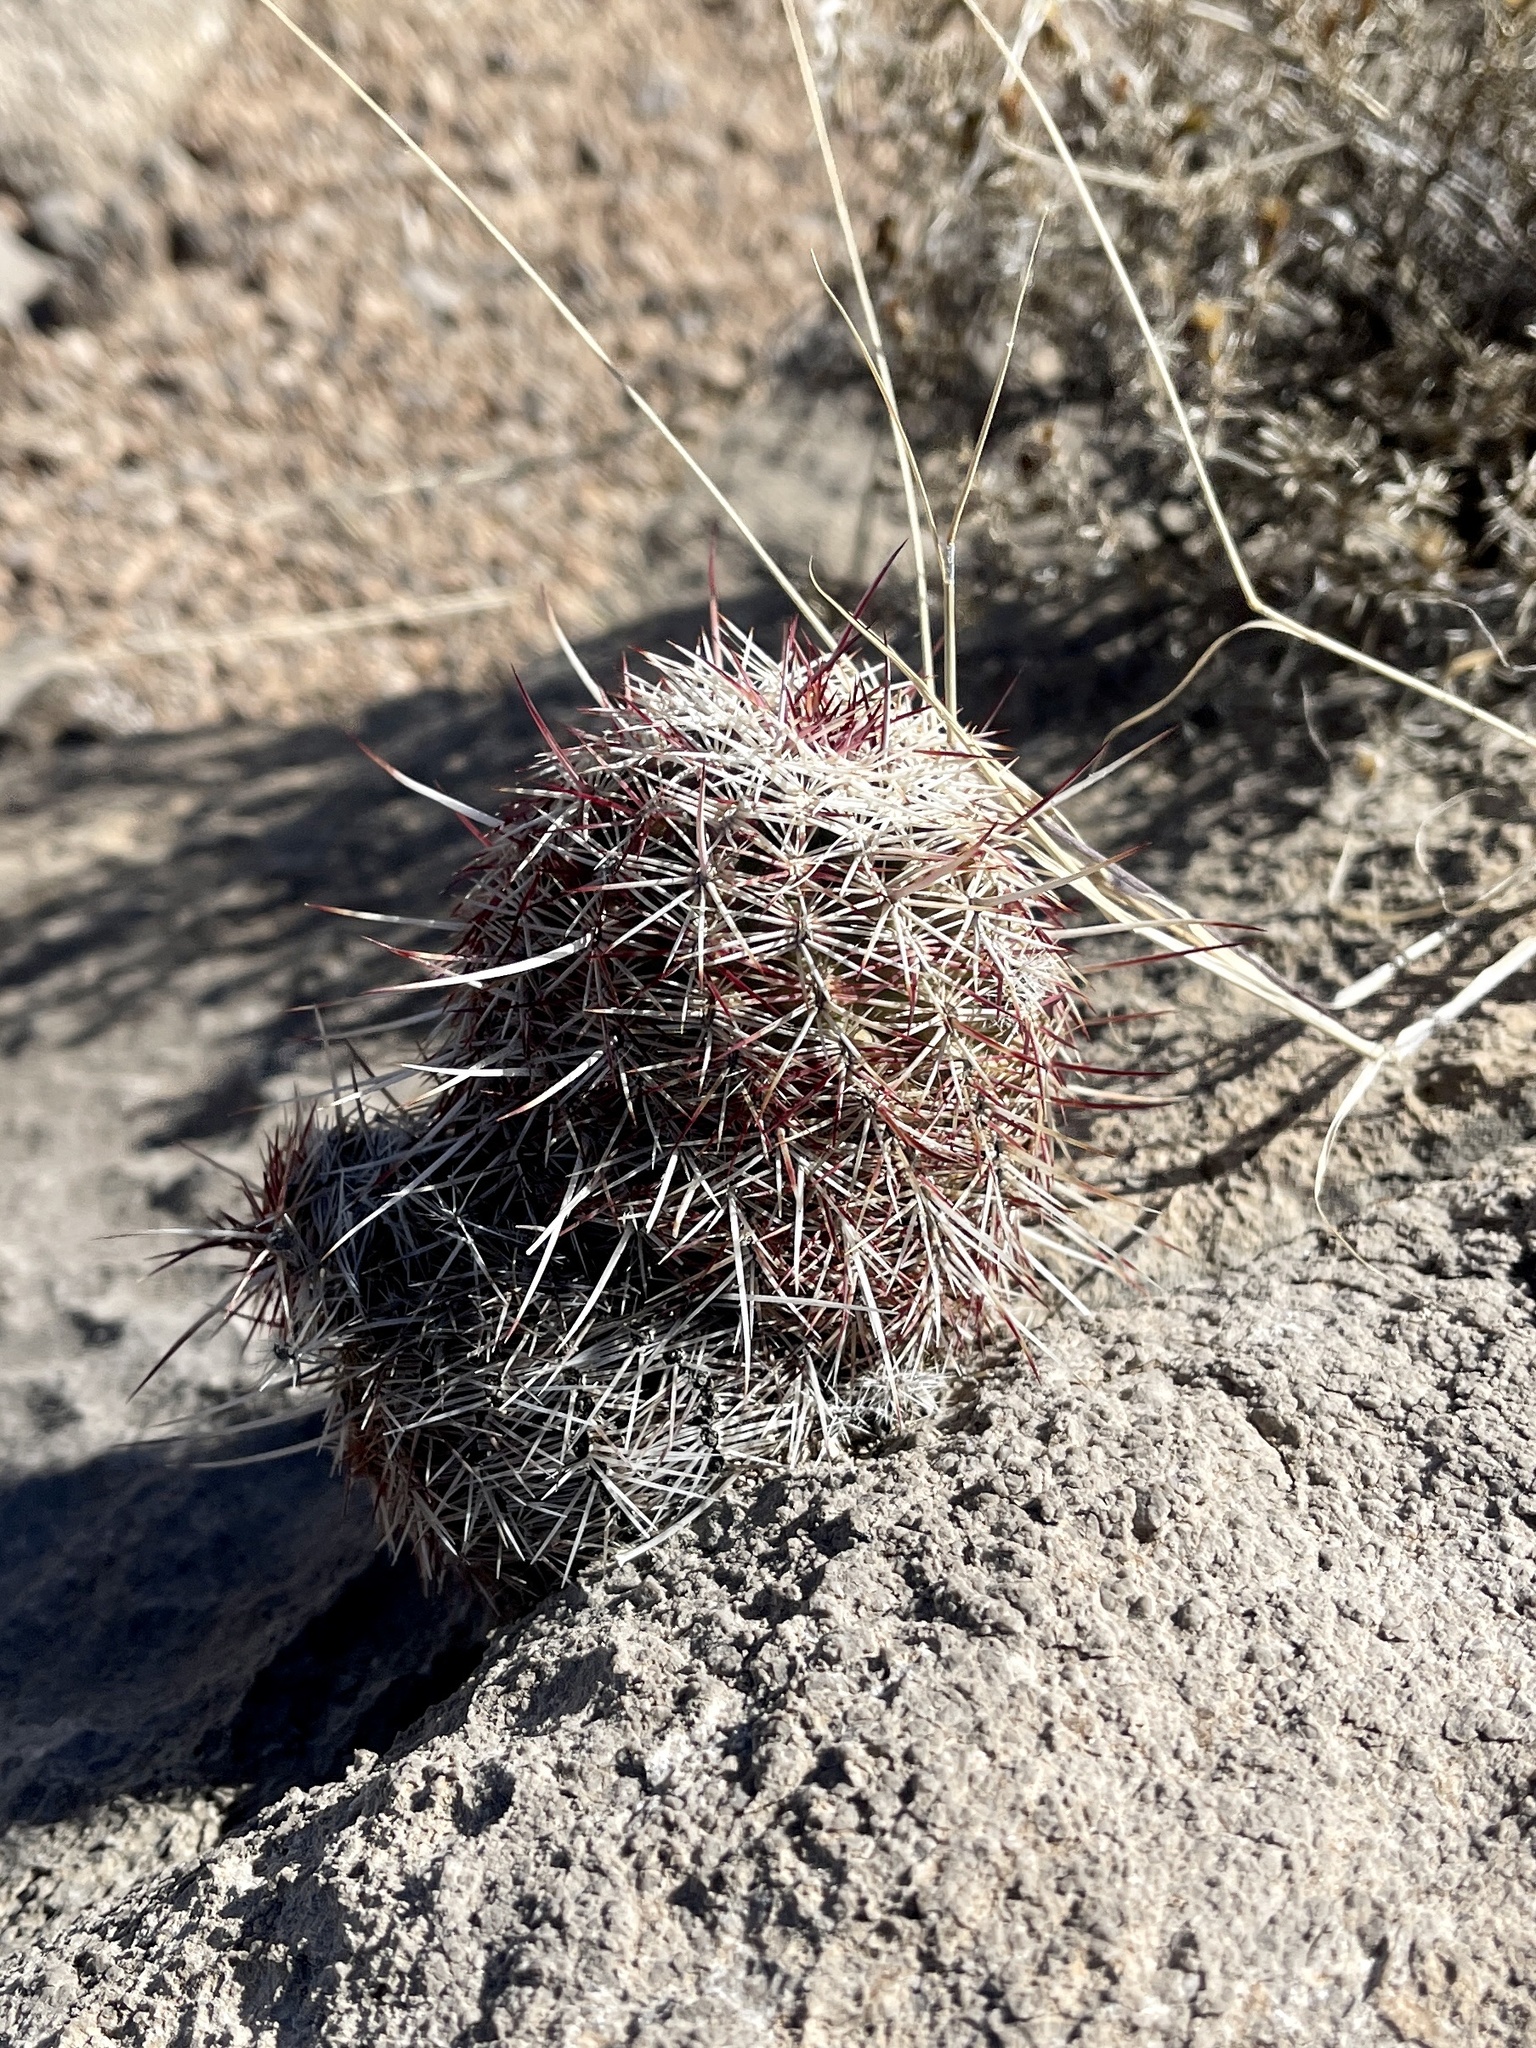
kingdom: Plantae
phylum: Tracheophyta
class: Magnoliopsida
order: Caryophyllales
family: Cactaceae
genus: Echinocereus
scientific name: Echinocereus viridiflorus
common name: Nylon hedgehog cactus
